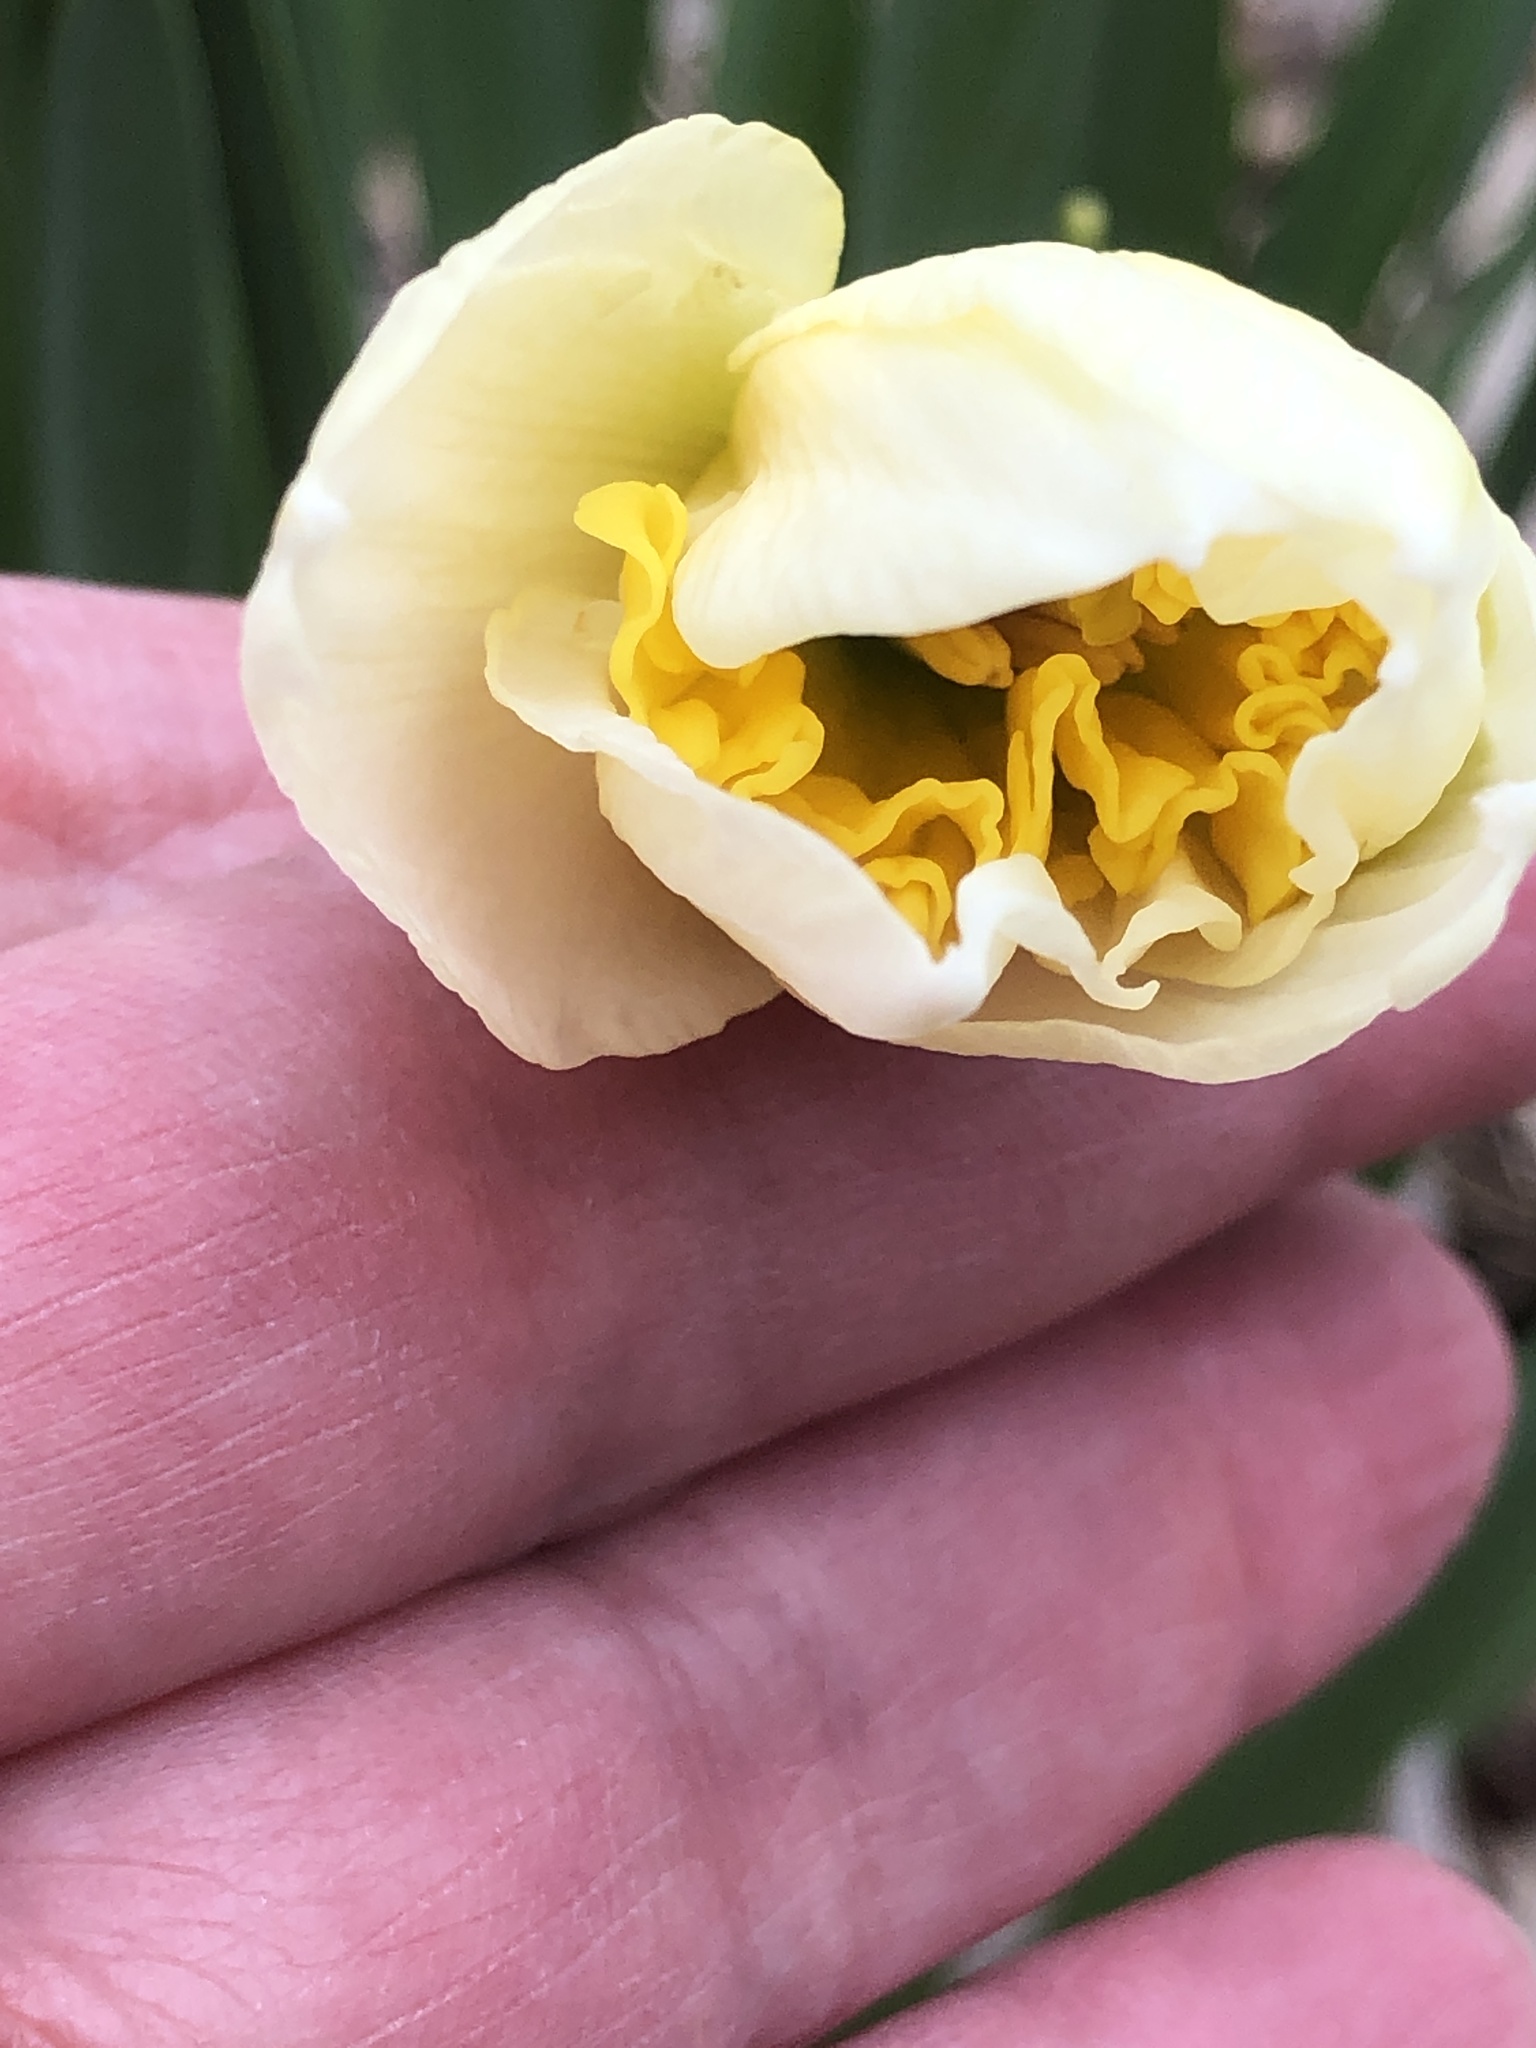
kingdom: Plantae
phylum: Tracheophyta
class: Liliopsida
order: Asparagales
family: Amaryllidaceae
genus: Narcissus
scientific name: Narcissus pseudonarcissus
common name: Daffodil
